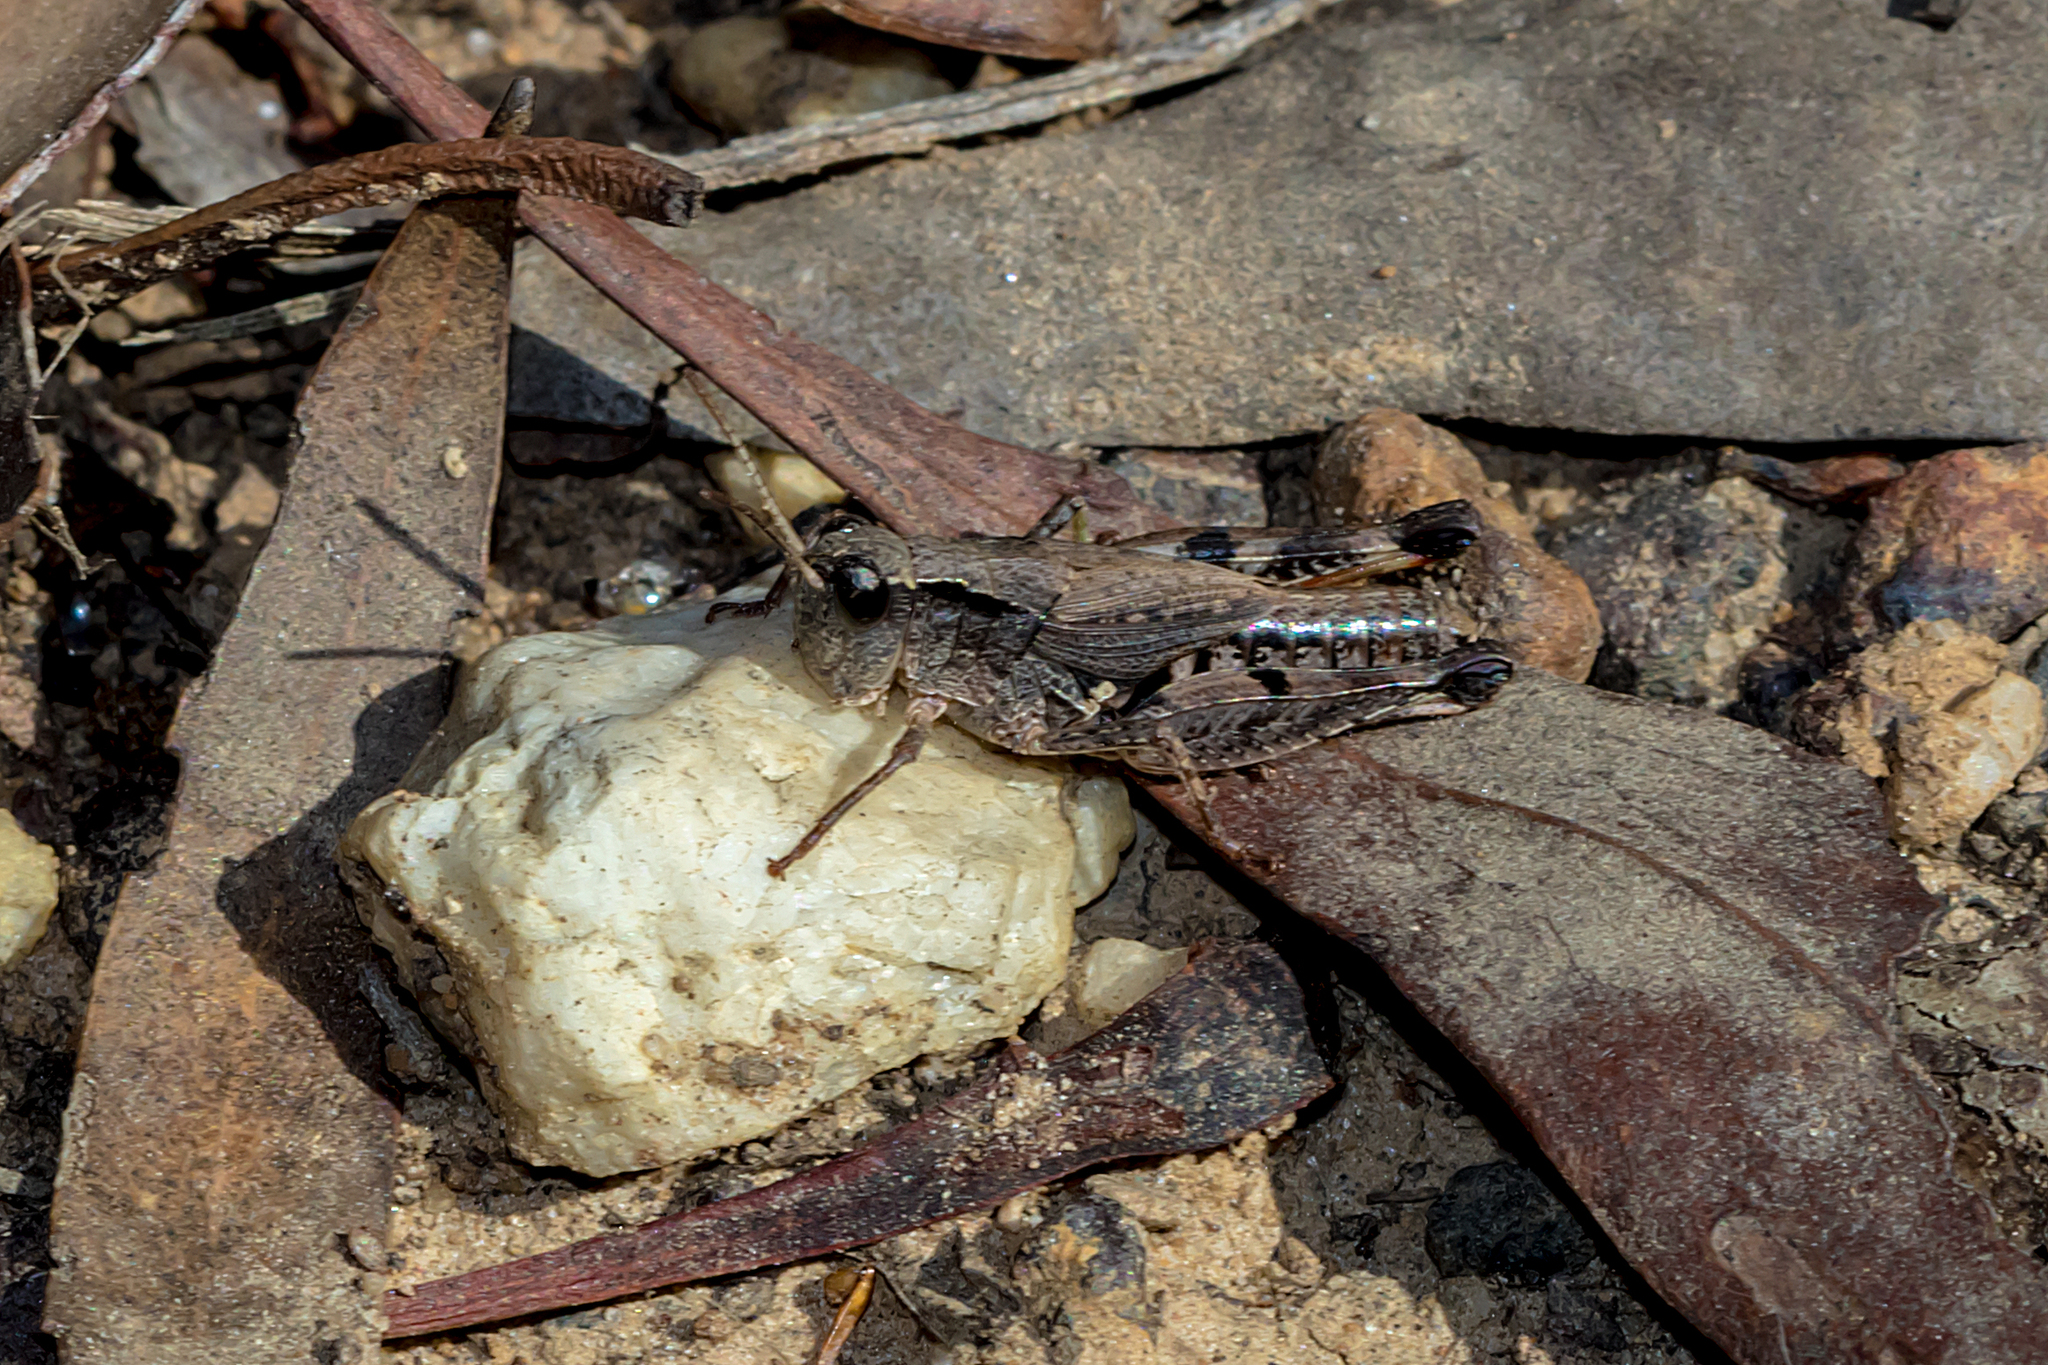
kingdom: Animalia
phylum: Arthropoda
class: Insecta
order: Orthoptera
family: Acrididae
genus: Phaulacridium
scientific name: Phaulacridium vittatum
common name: Wingless grasshopper
